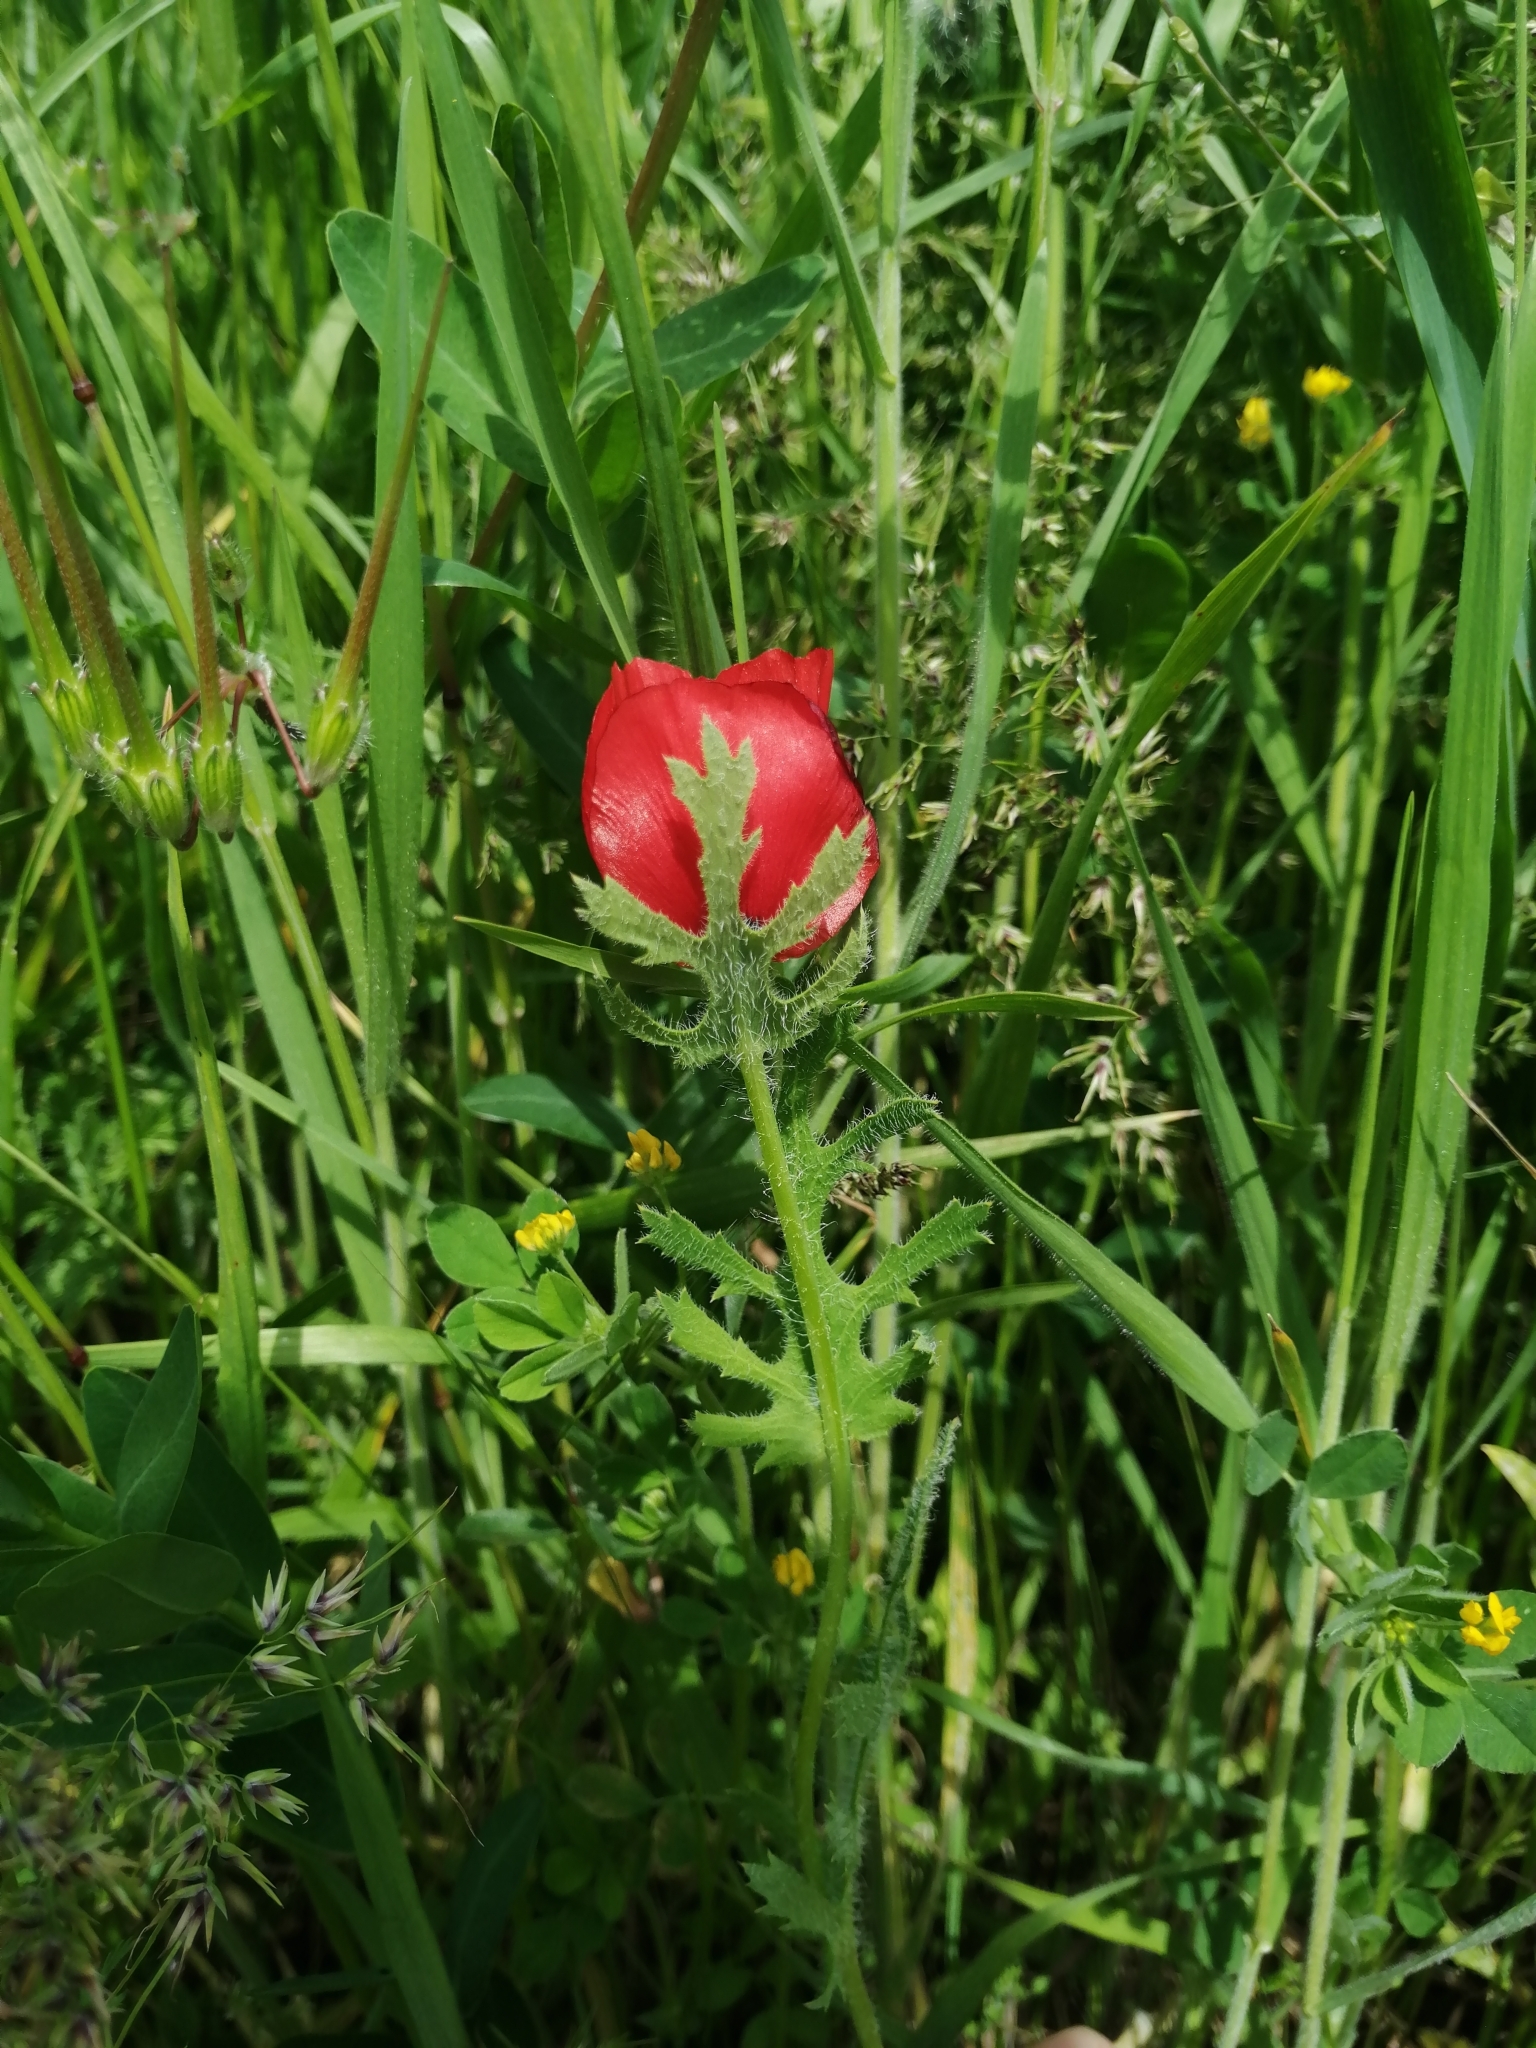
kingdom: Plantae
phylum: Tracheophyta
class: Magnoliopsida
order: Ranunculales
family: Papaveraceae
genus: Glaucium
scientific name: Glaucium corniculatum
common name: Red horned-poppy
